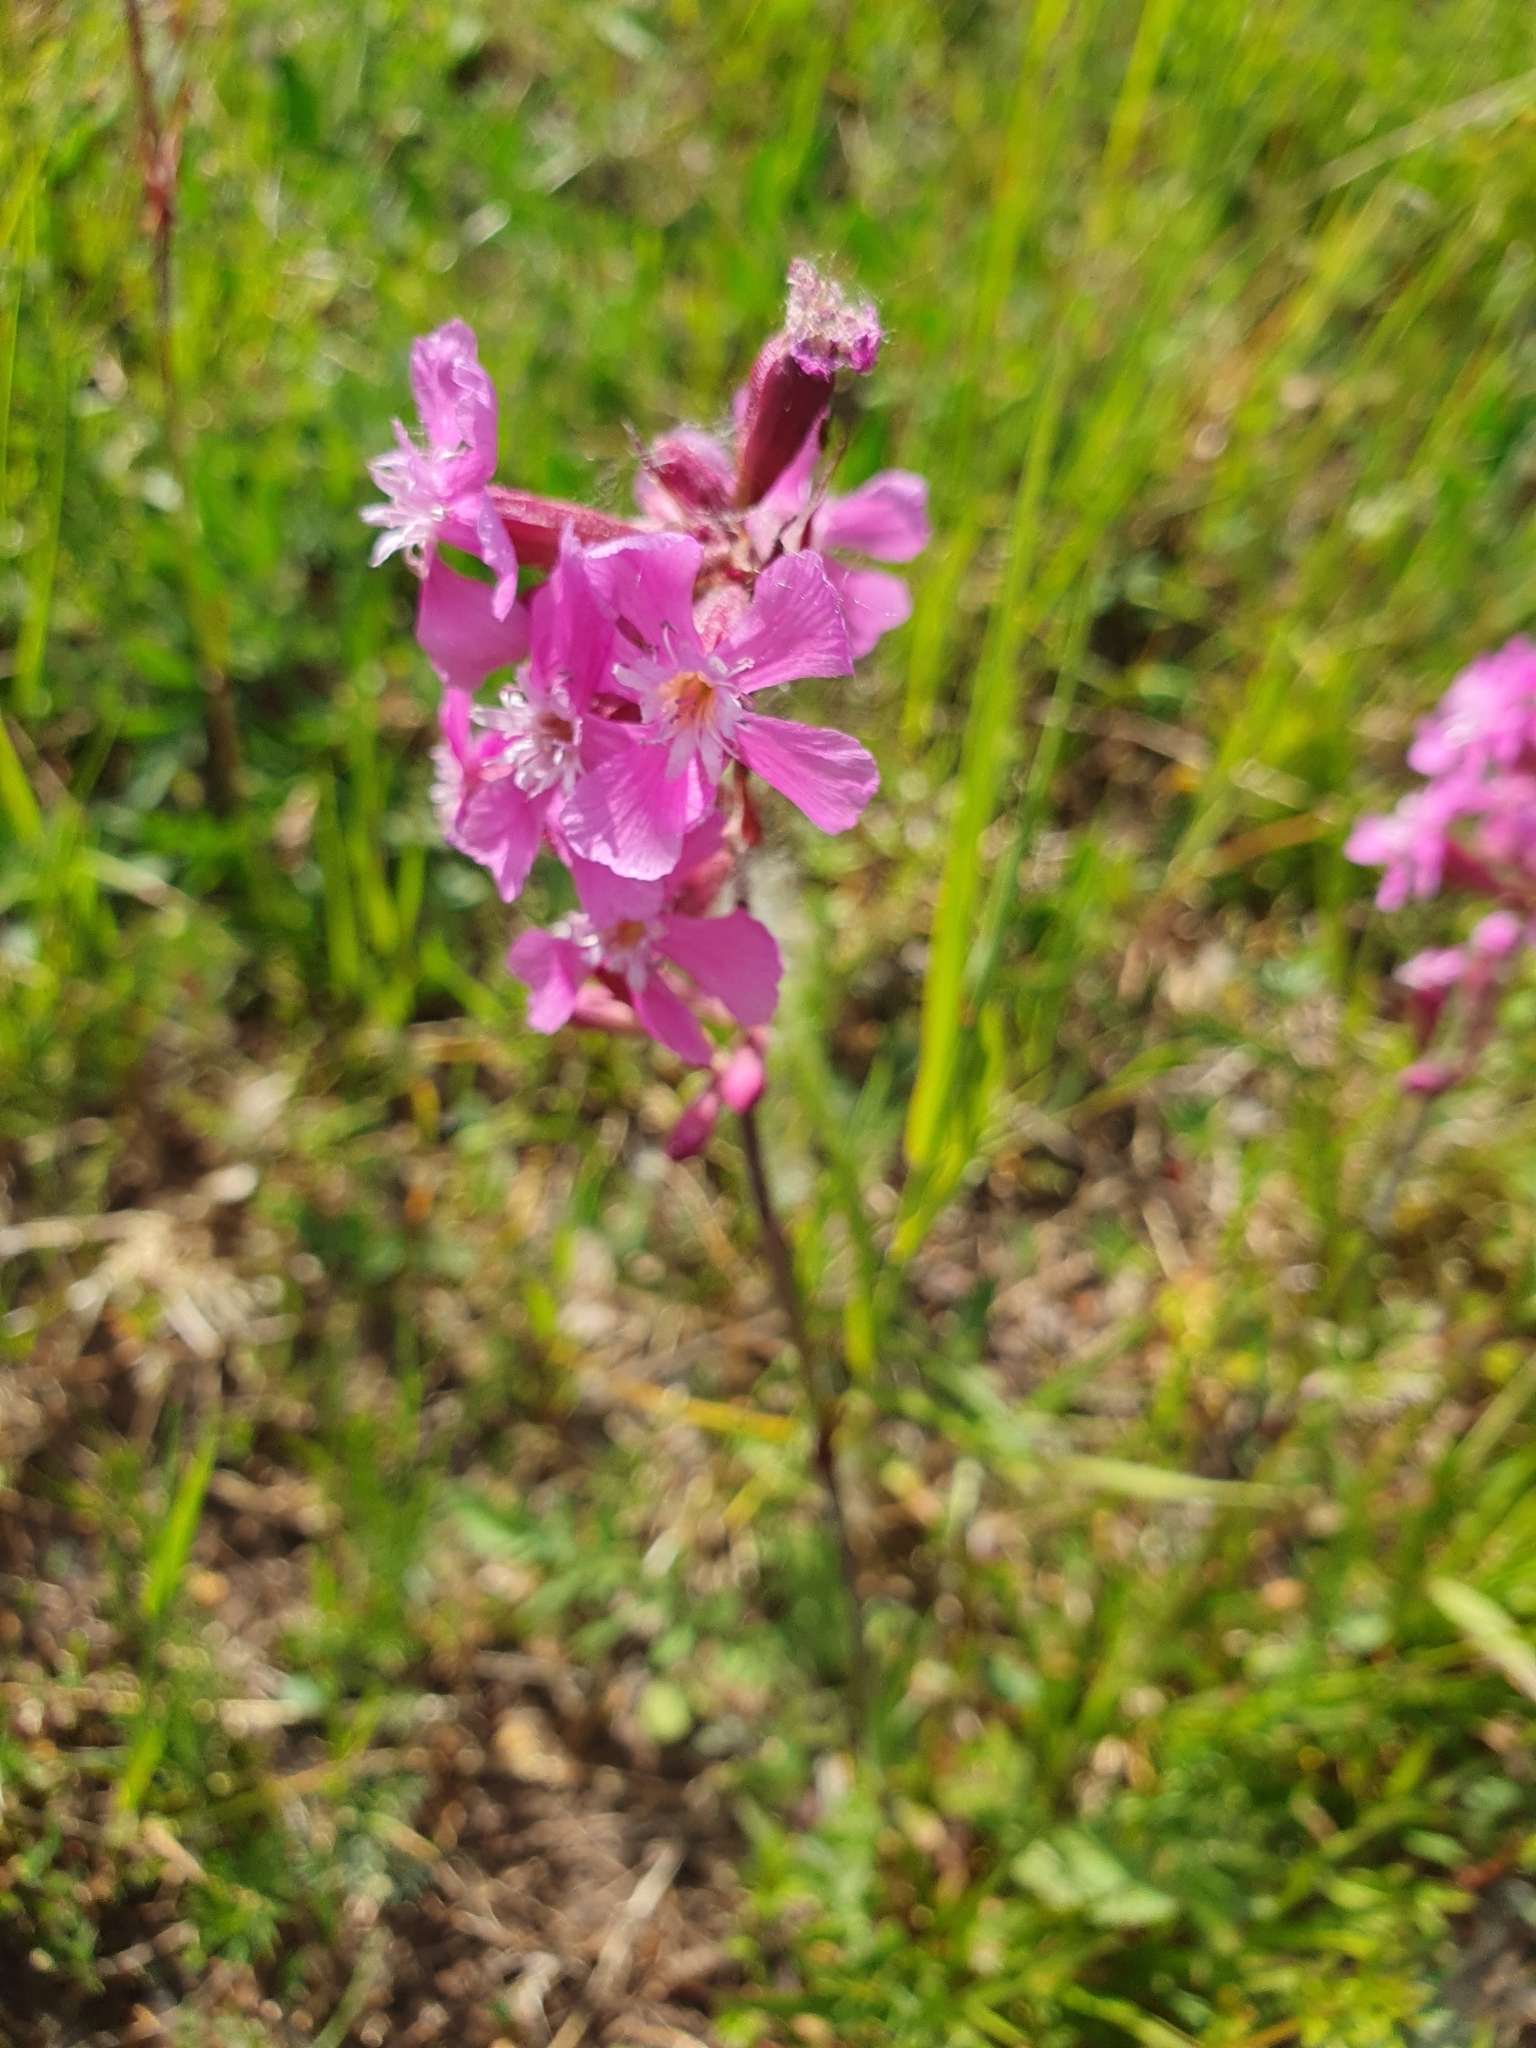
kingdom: Plantae
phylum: Tracheophyta
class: Magnoliopsida
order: Caryophyllales
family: Caryophyllaceae
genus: Viscaria
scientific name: Viscaria vulgaris
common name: Clammy campion
